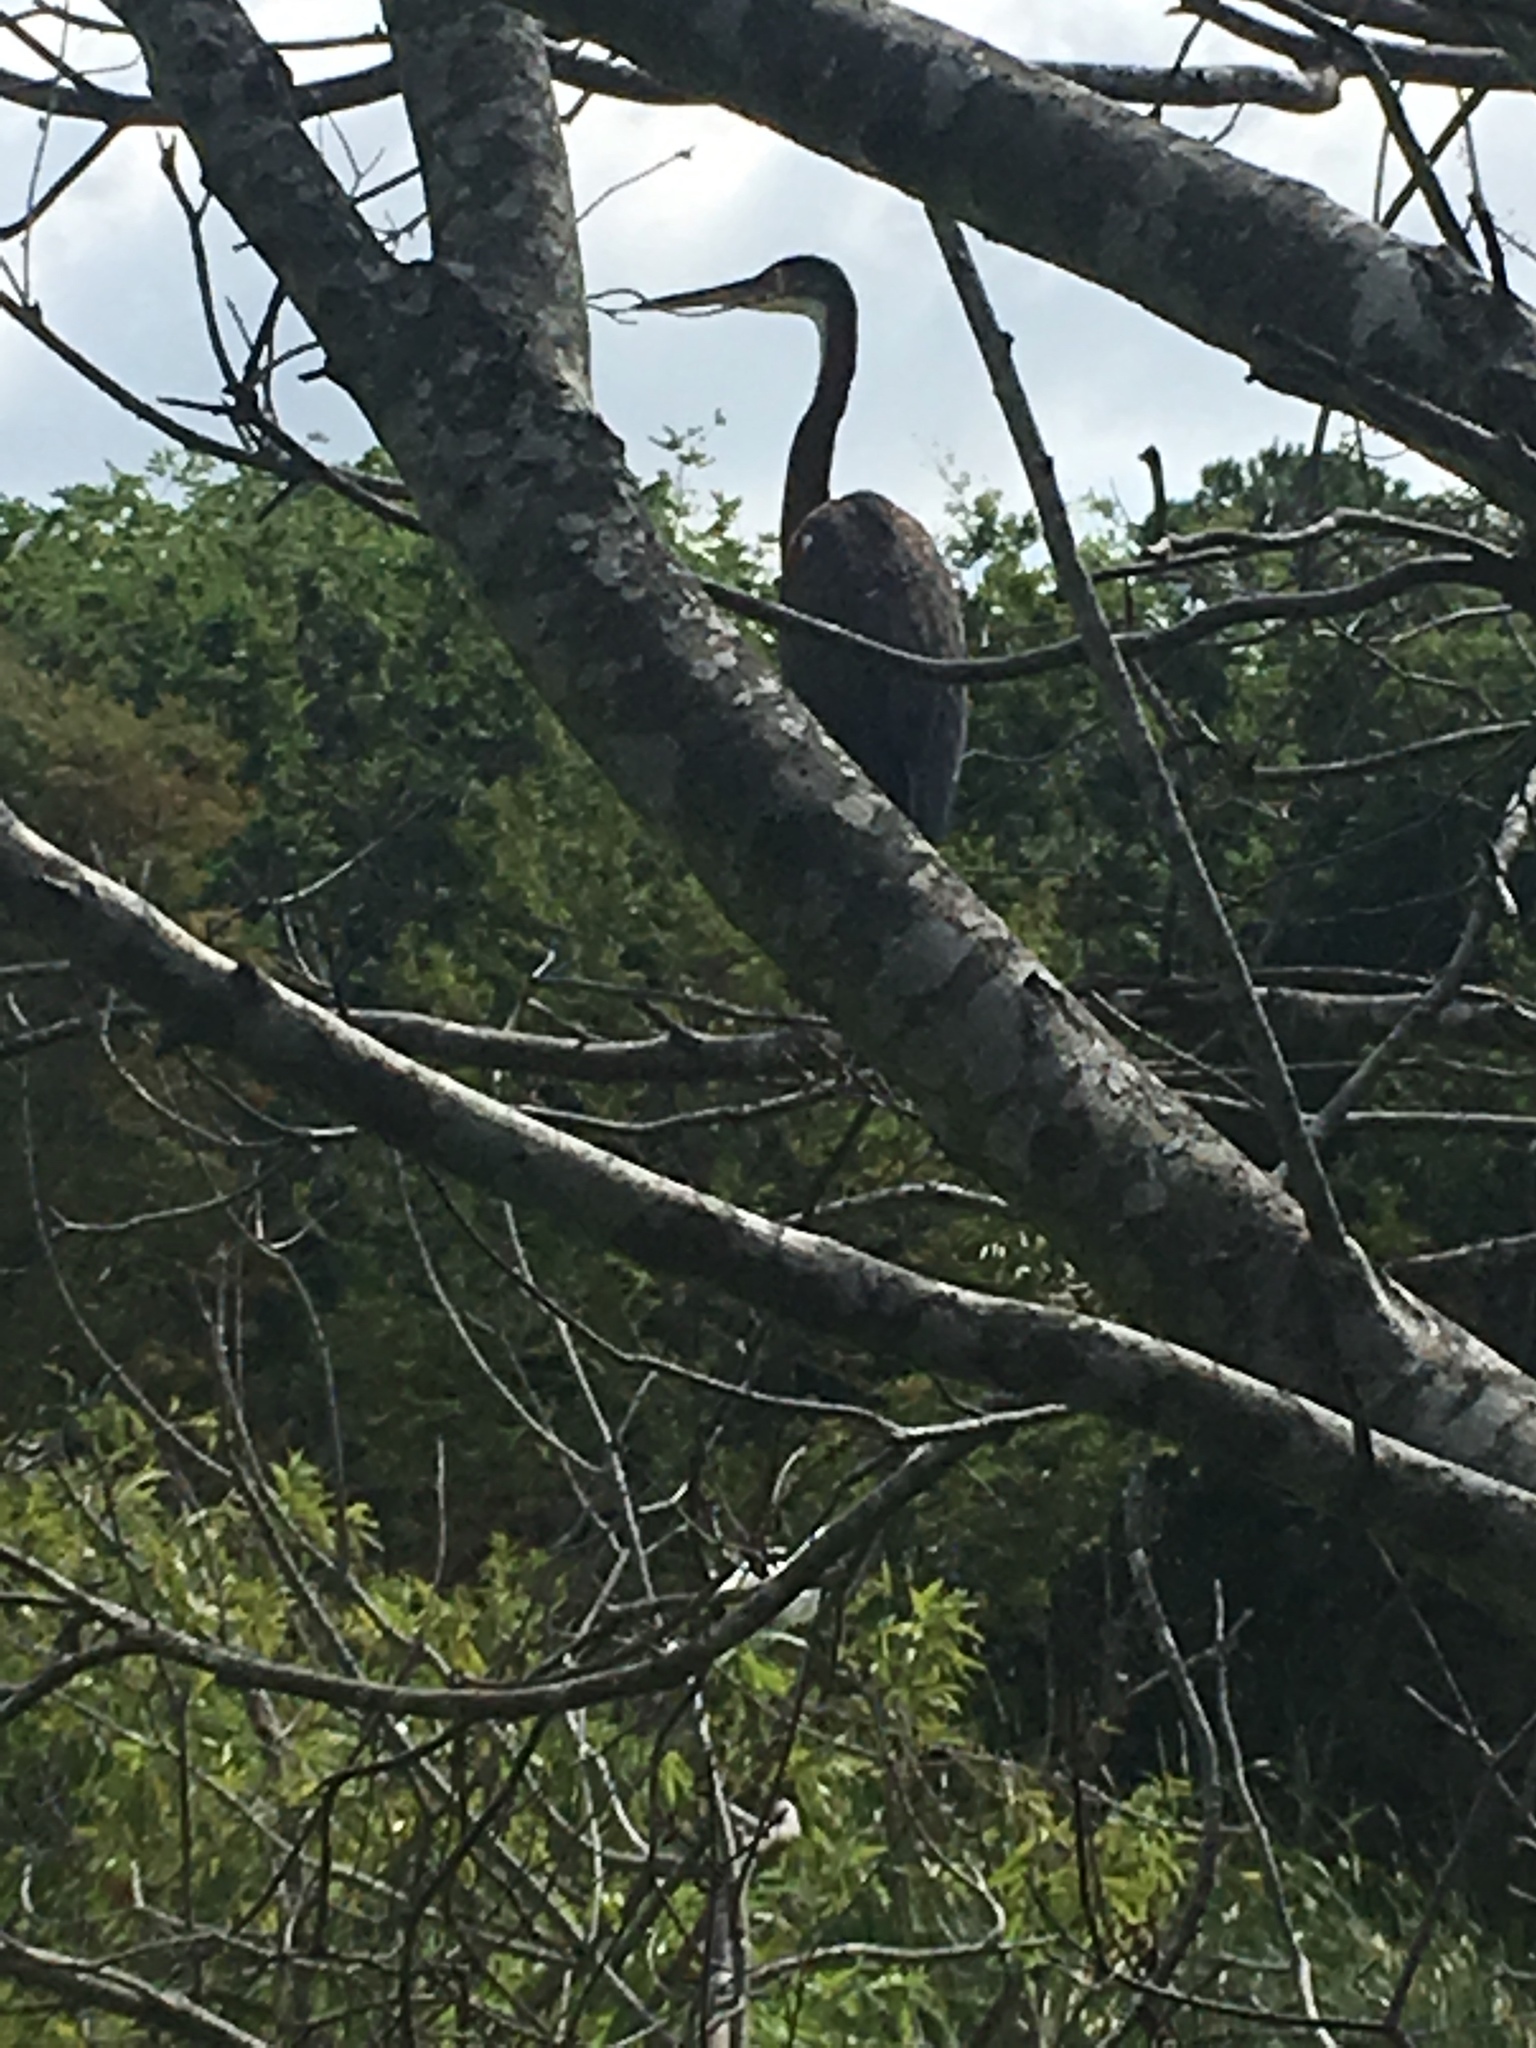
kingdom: Animalia
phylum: Chordata
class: Aves
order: Pelecaniformes
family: Ardeidae
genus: Egretta
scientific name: Egretta tricolor
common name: Tricolored heron
